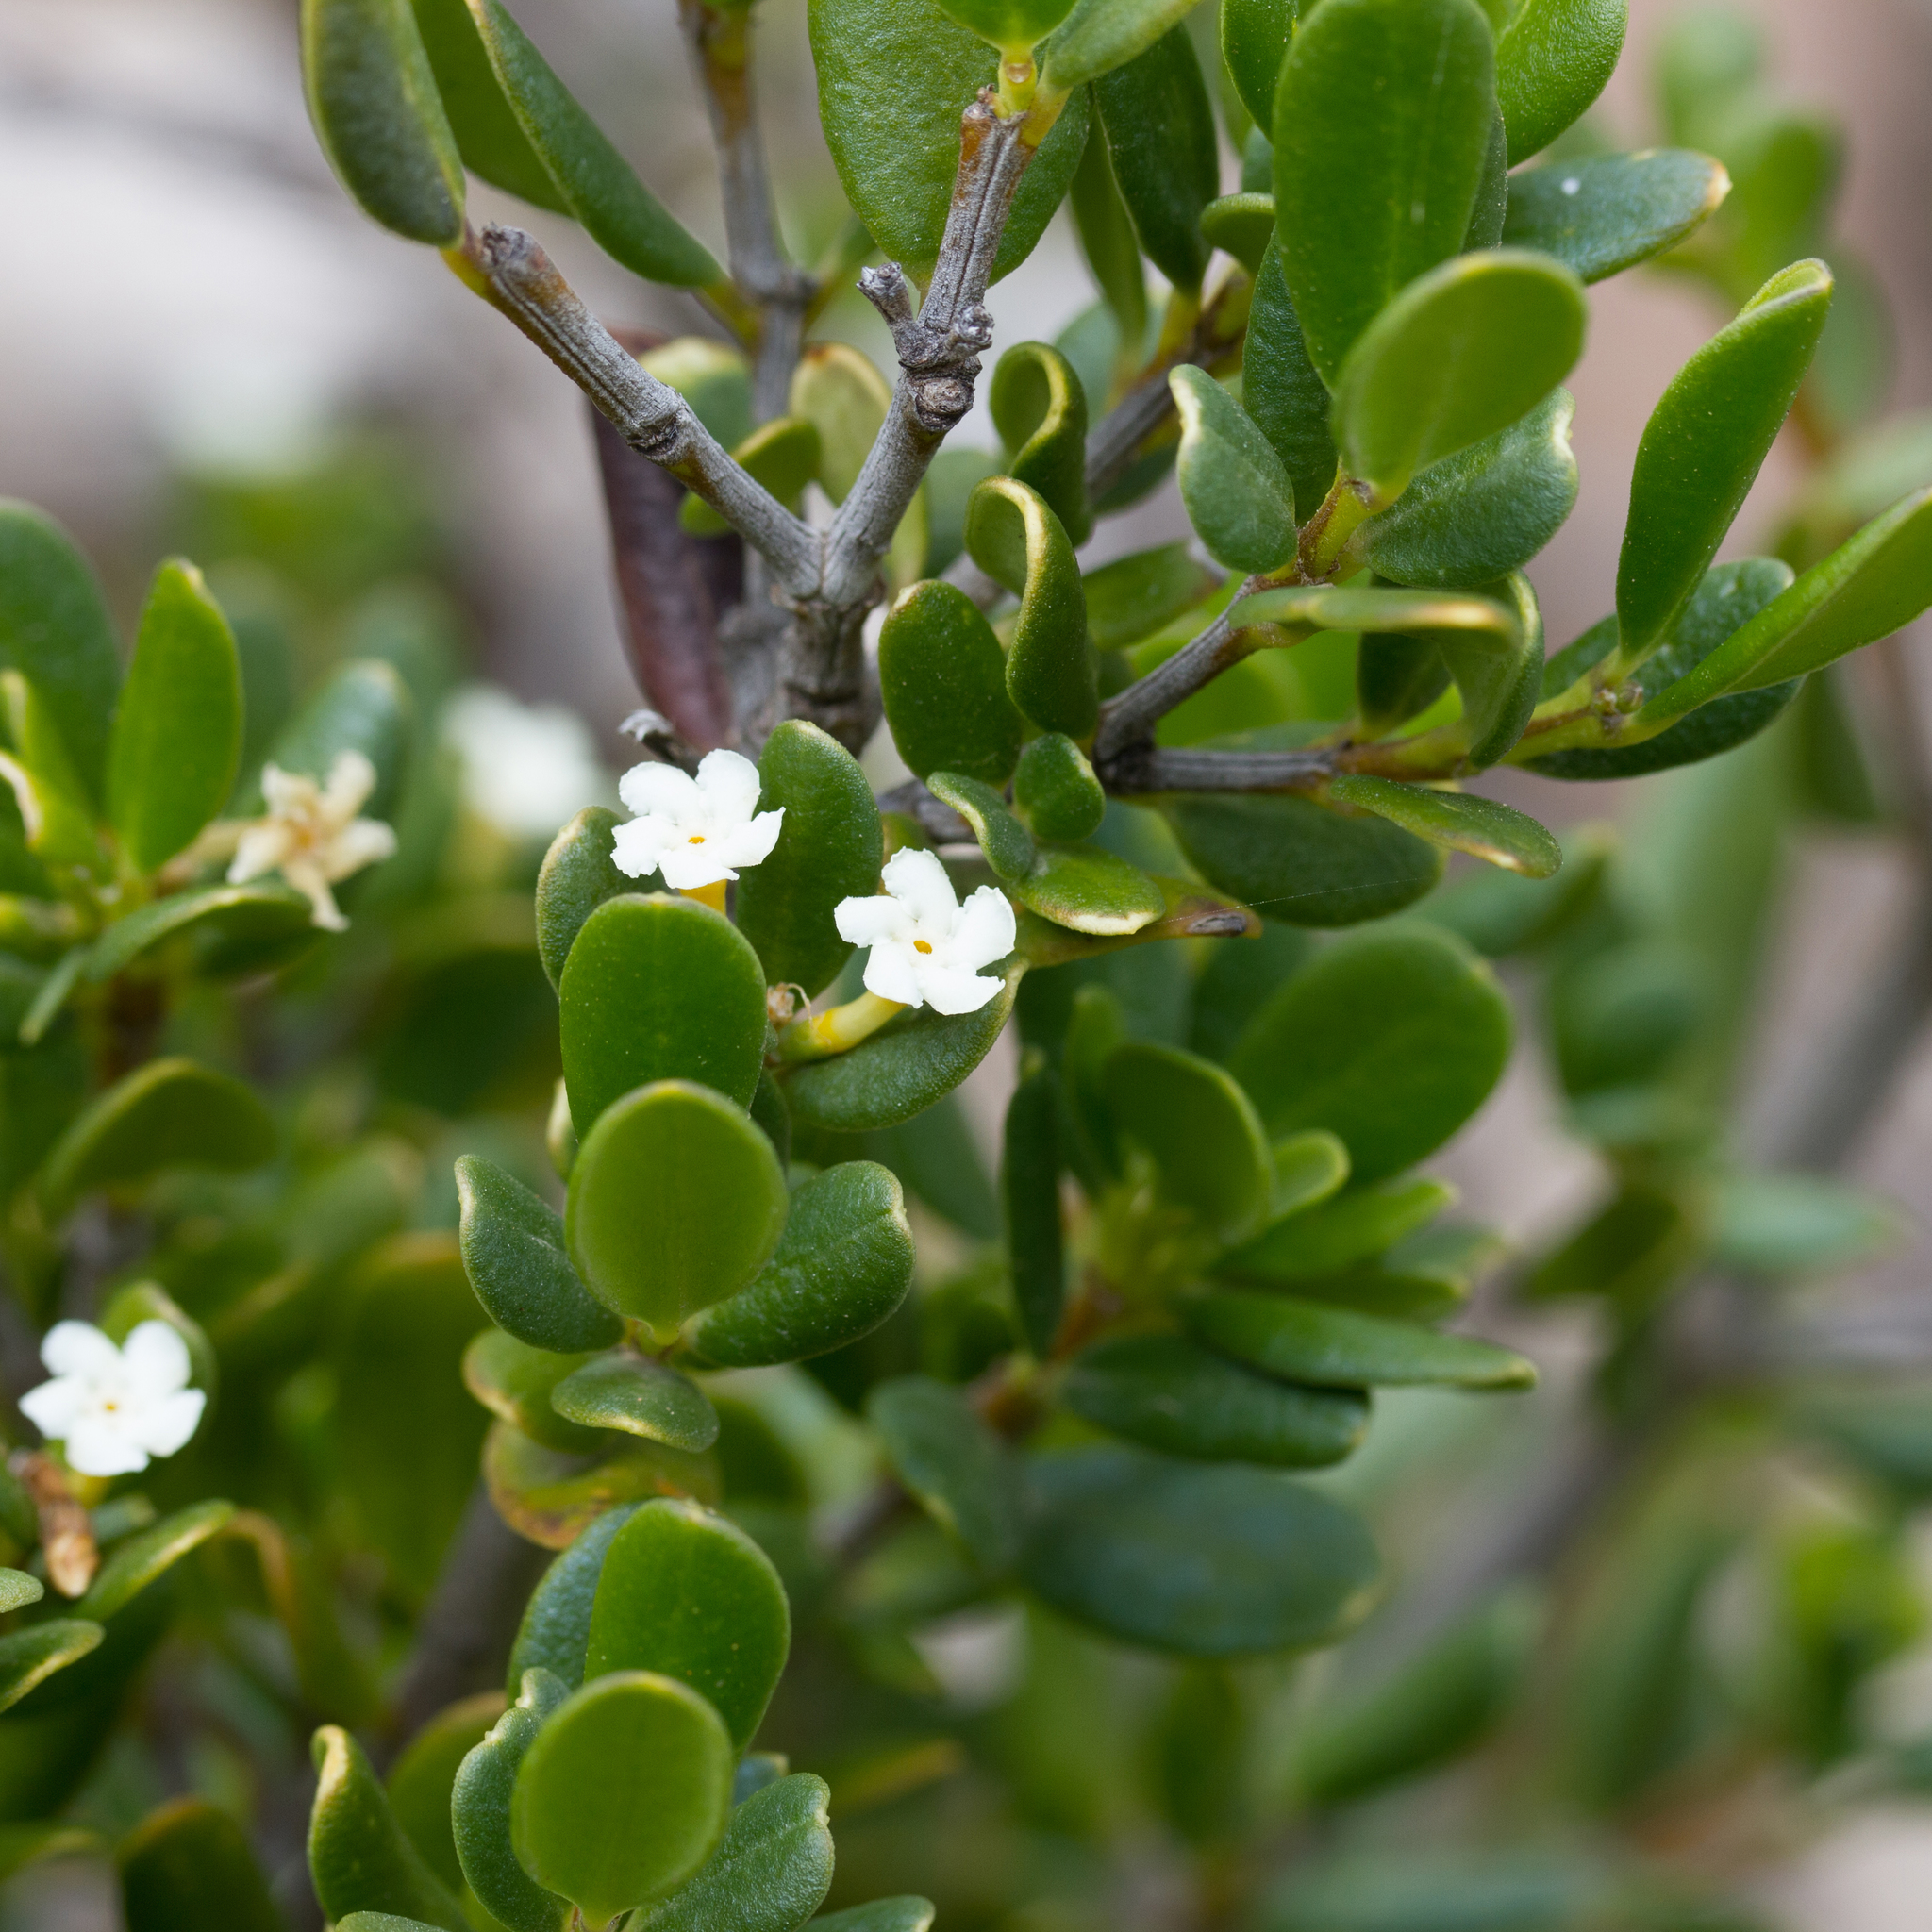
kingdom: Plantae
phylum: Tracheophyta
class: Magnoliopsida
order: Gentianales
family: Apocynaceae
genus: Alyxia
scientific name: Alyxia buxifolia
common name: Dysentery-bush
